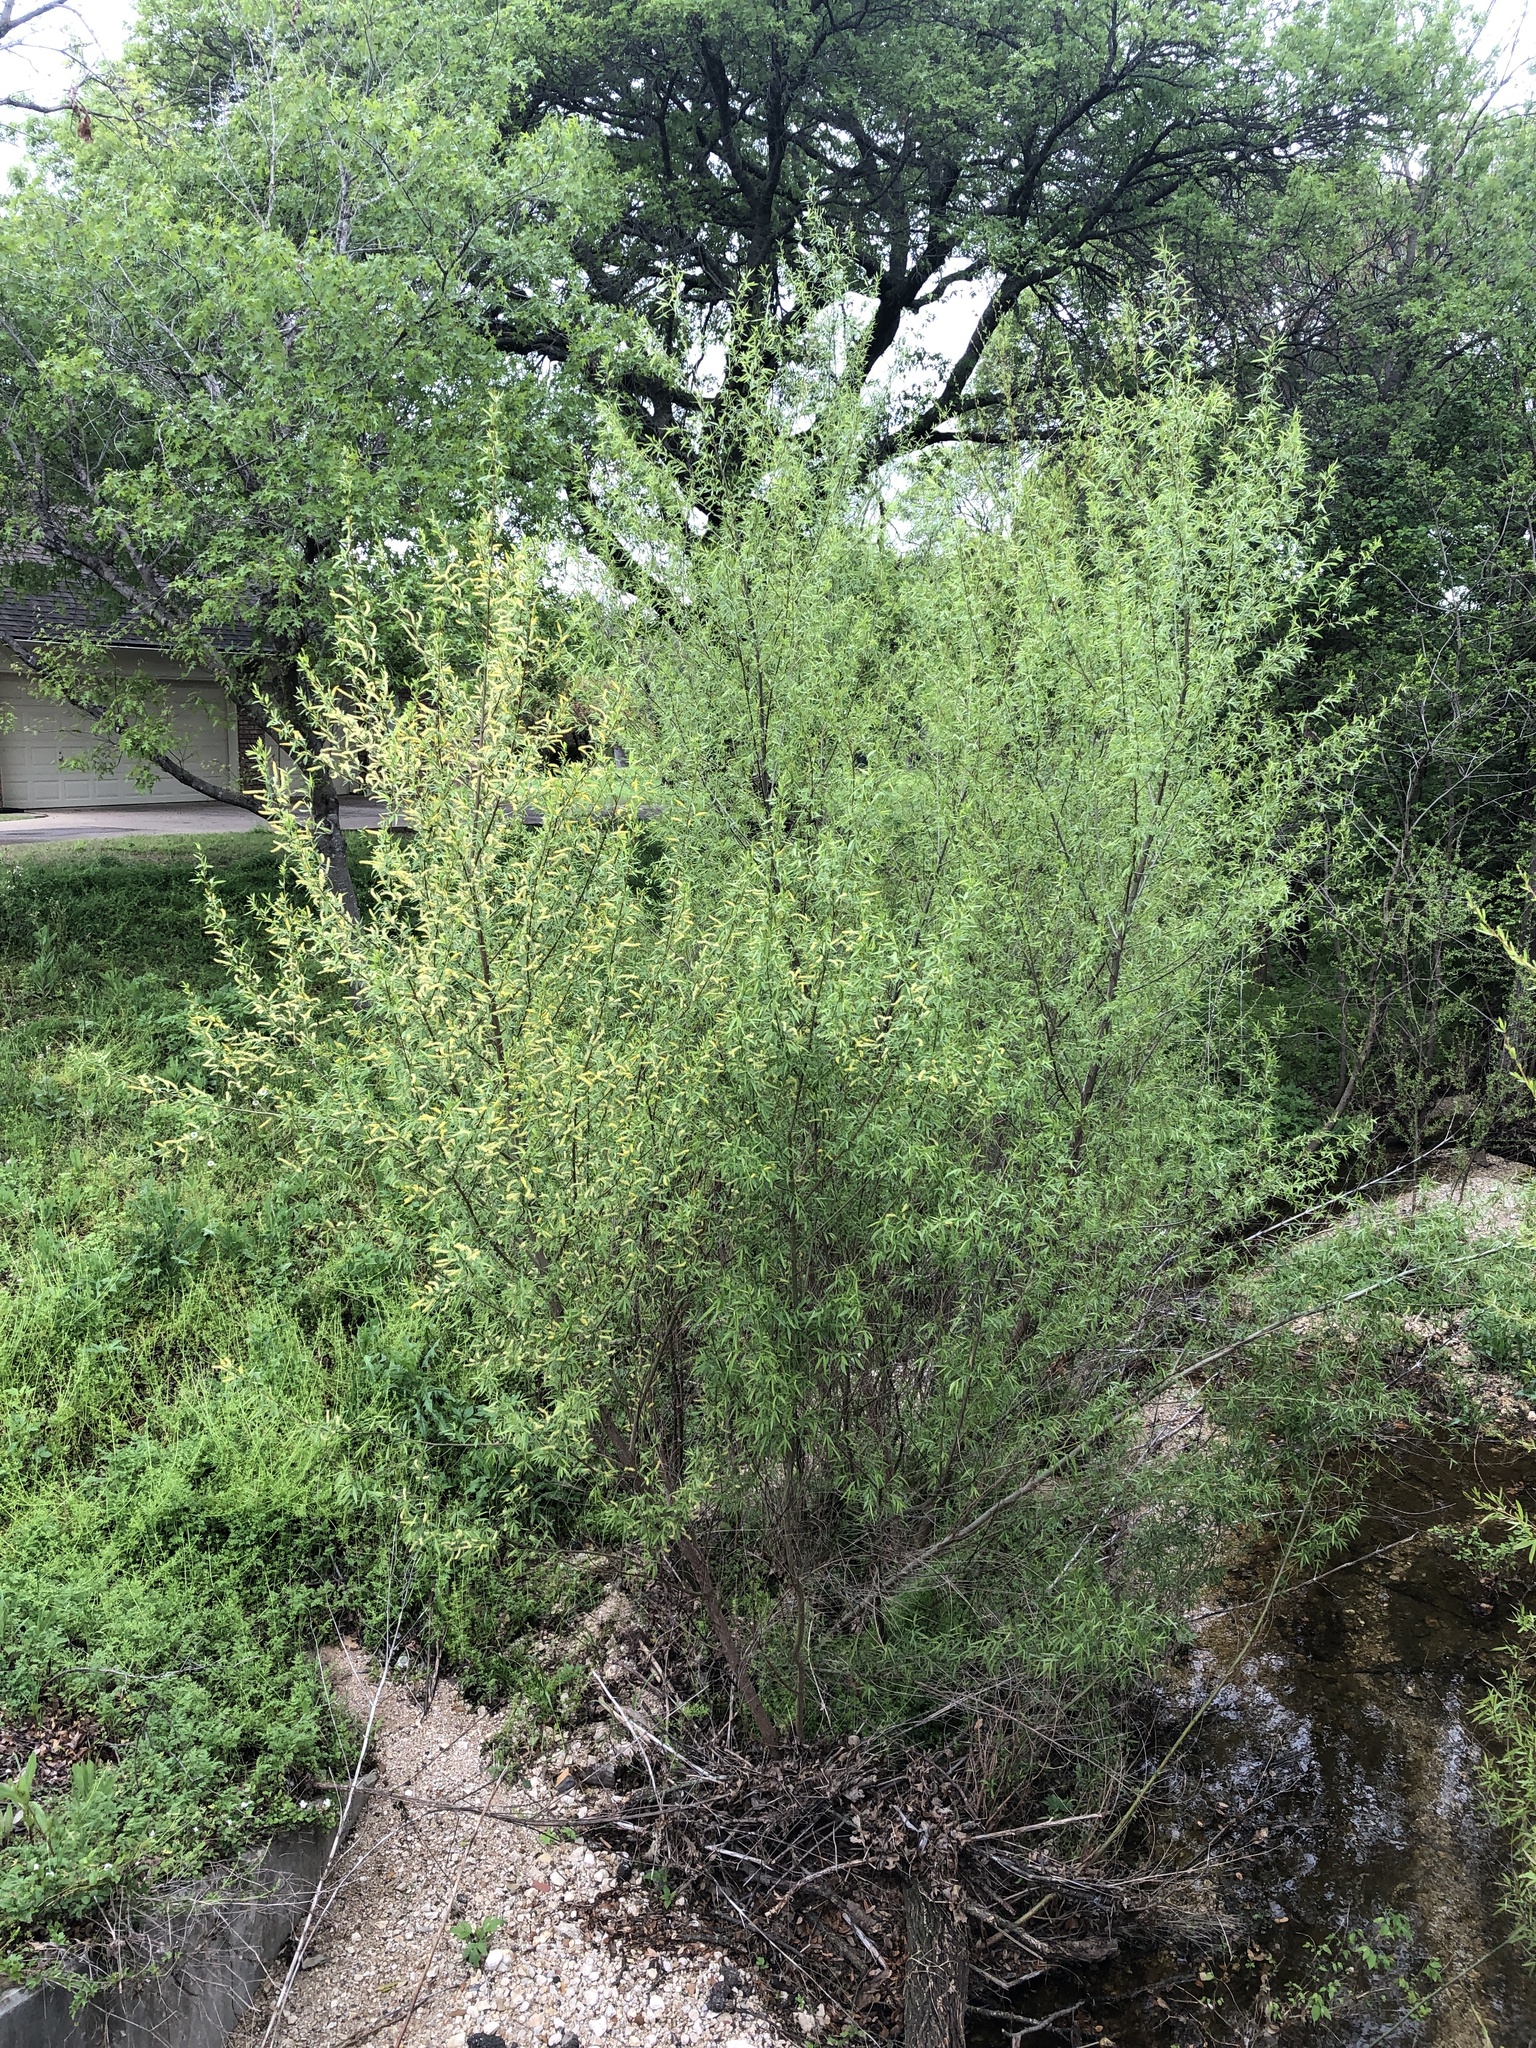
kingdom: Plantae
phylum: Tracheophyta
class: Magnoliopsida
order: Malpighiales
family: Salicaceae
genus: Salix
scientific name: Salix nigra
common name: Black willow
